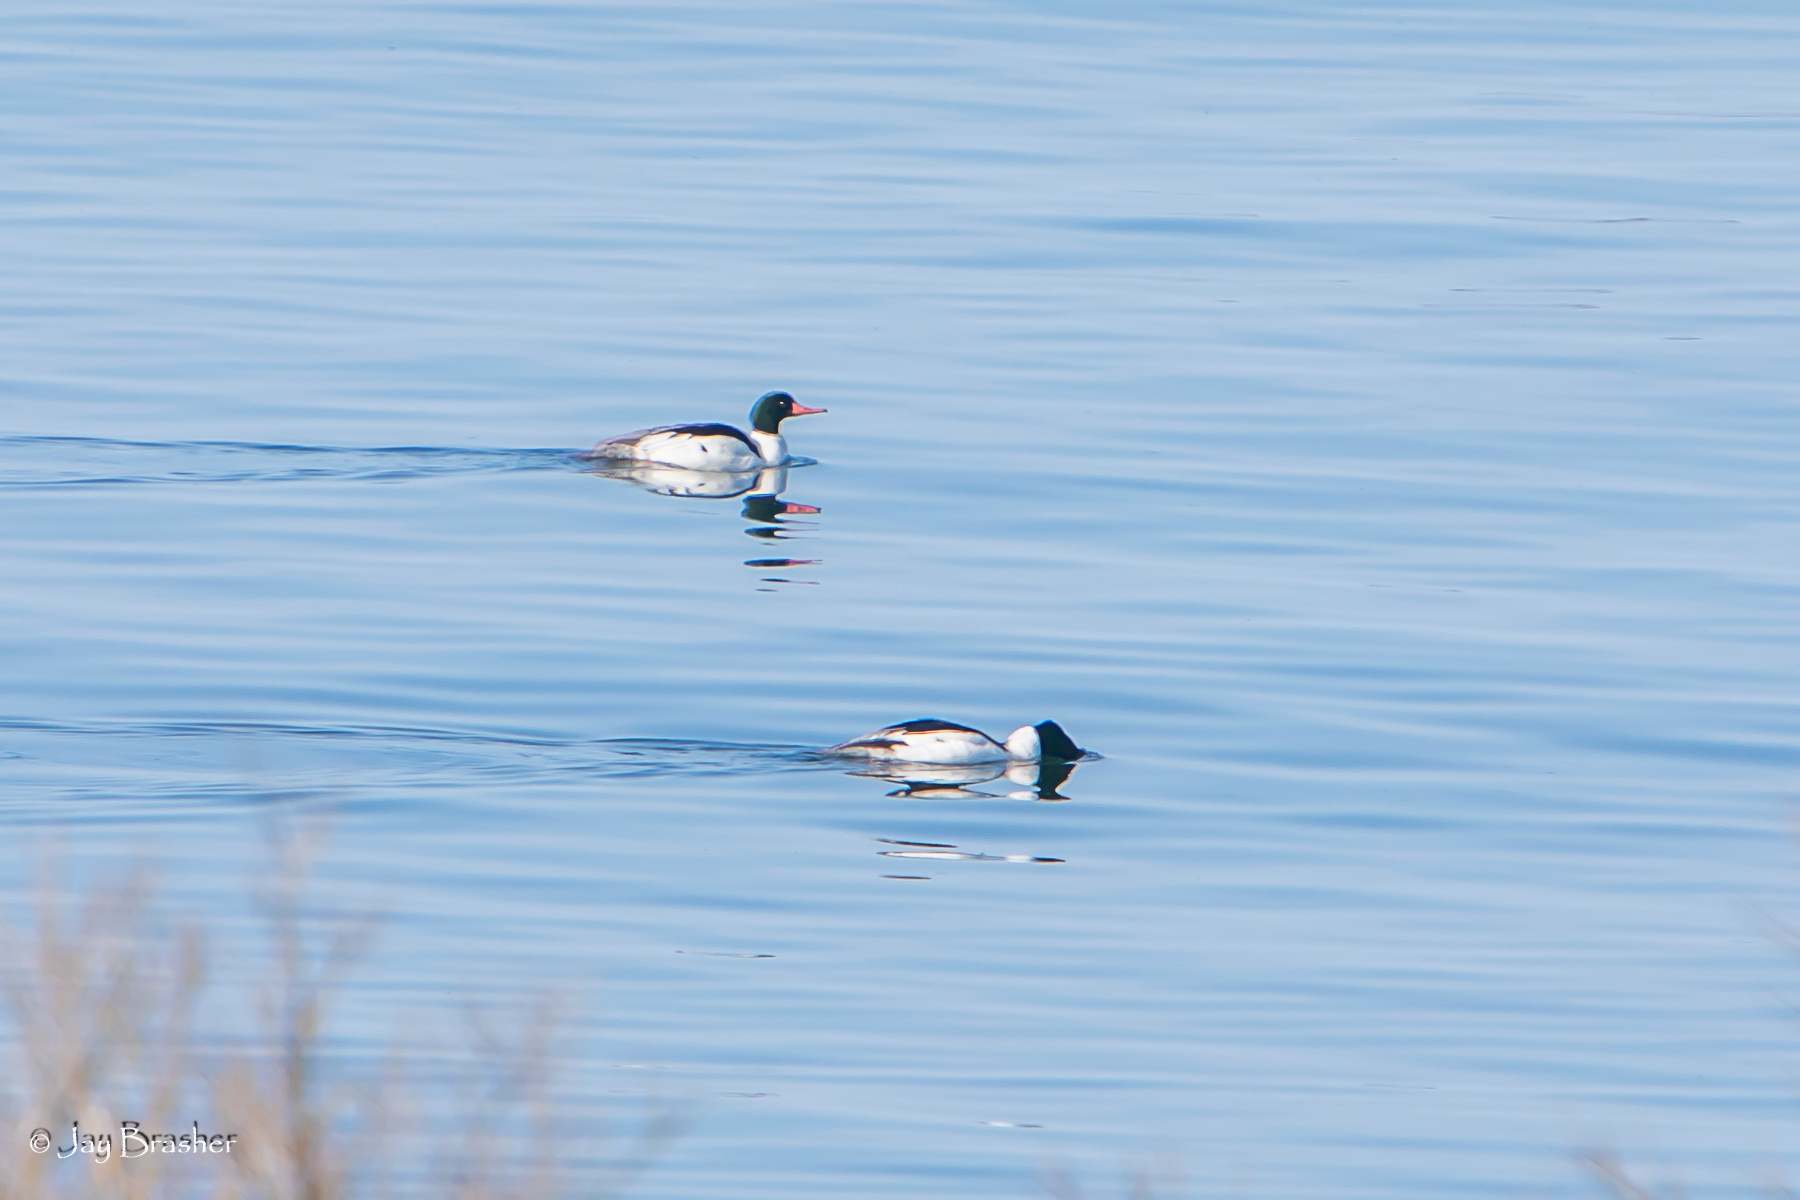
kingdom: Animalia
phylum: Chordata
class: Aves
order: Anseriformes
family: Anatidae
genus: Mergus
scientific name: Mergus merganser
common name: Common merganser
